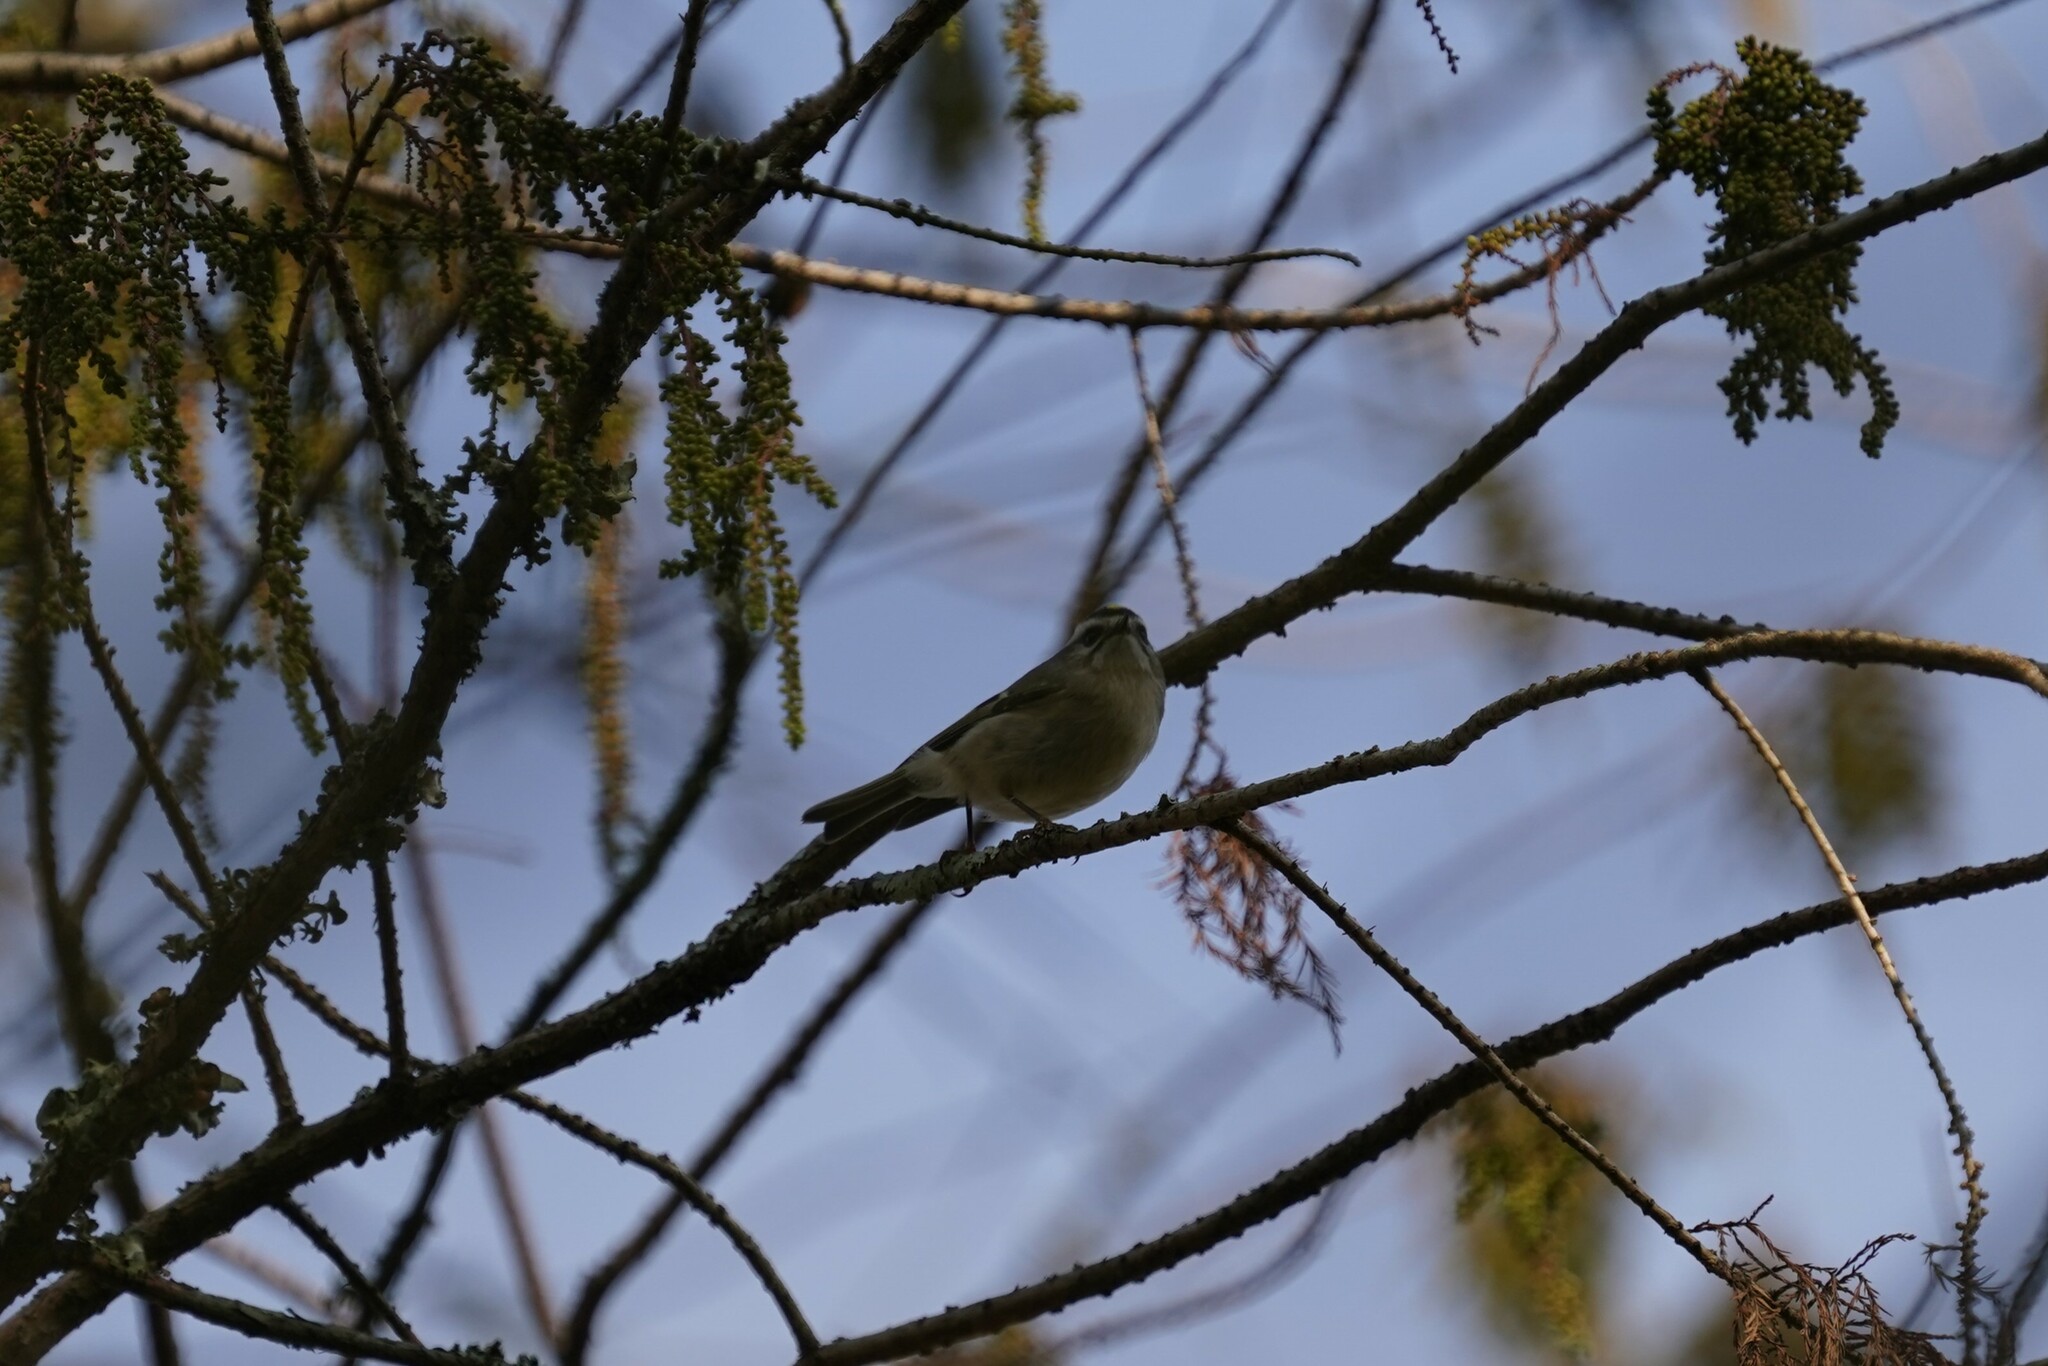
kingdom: Animalia
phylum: Chordata
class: Aves
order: Passeriformes
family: Regulidae
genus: Regulus
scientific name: Regulus satrapa
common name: Golden-crowned kinglet
